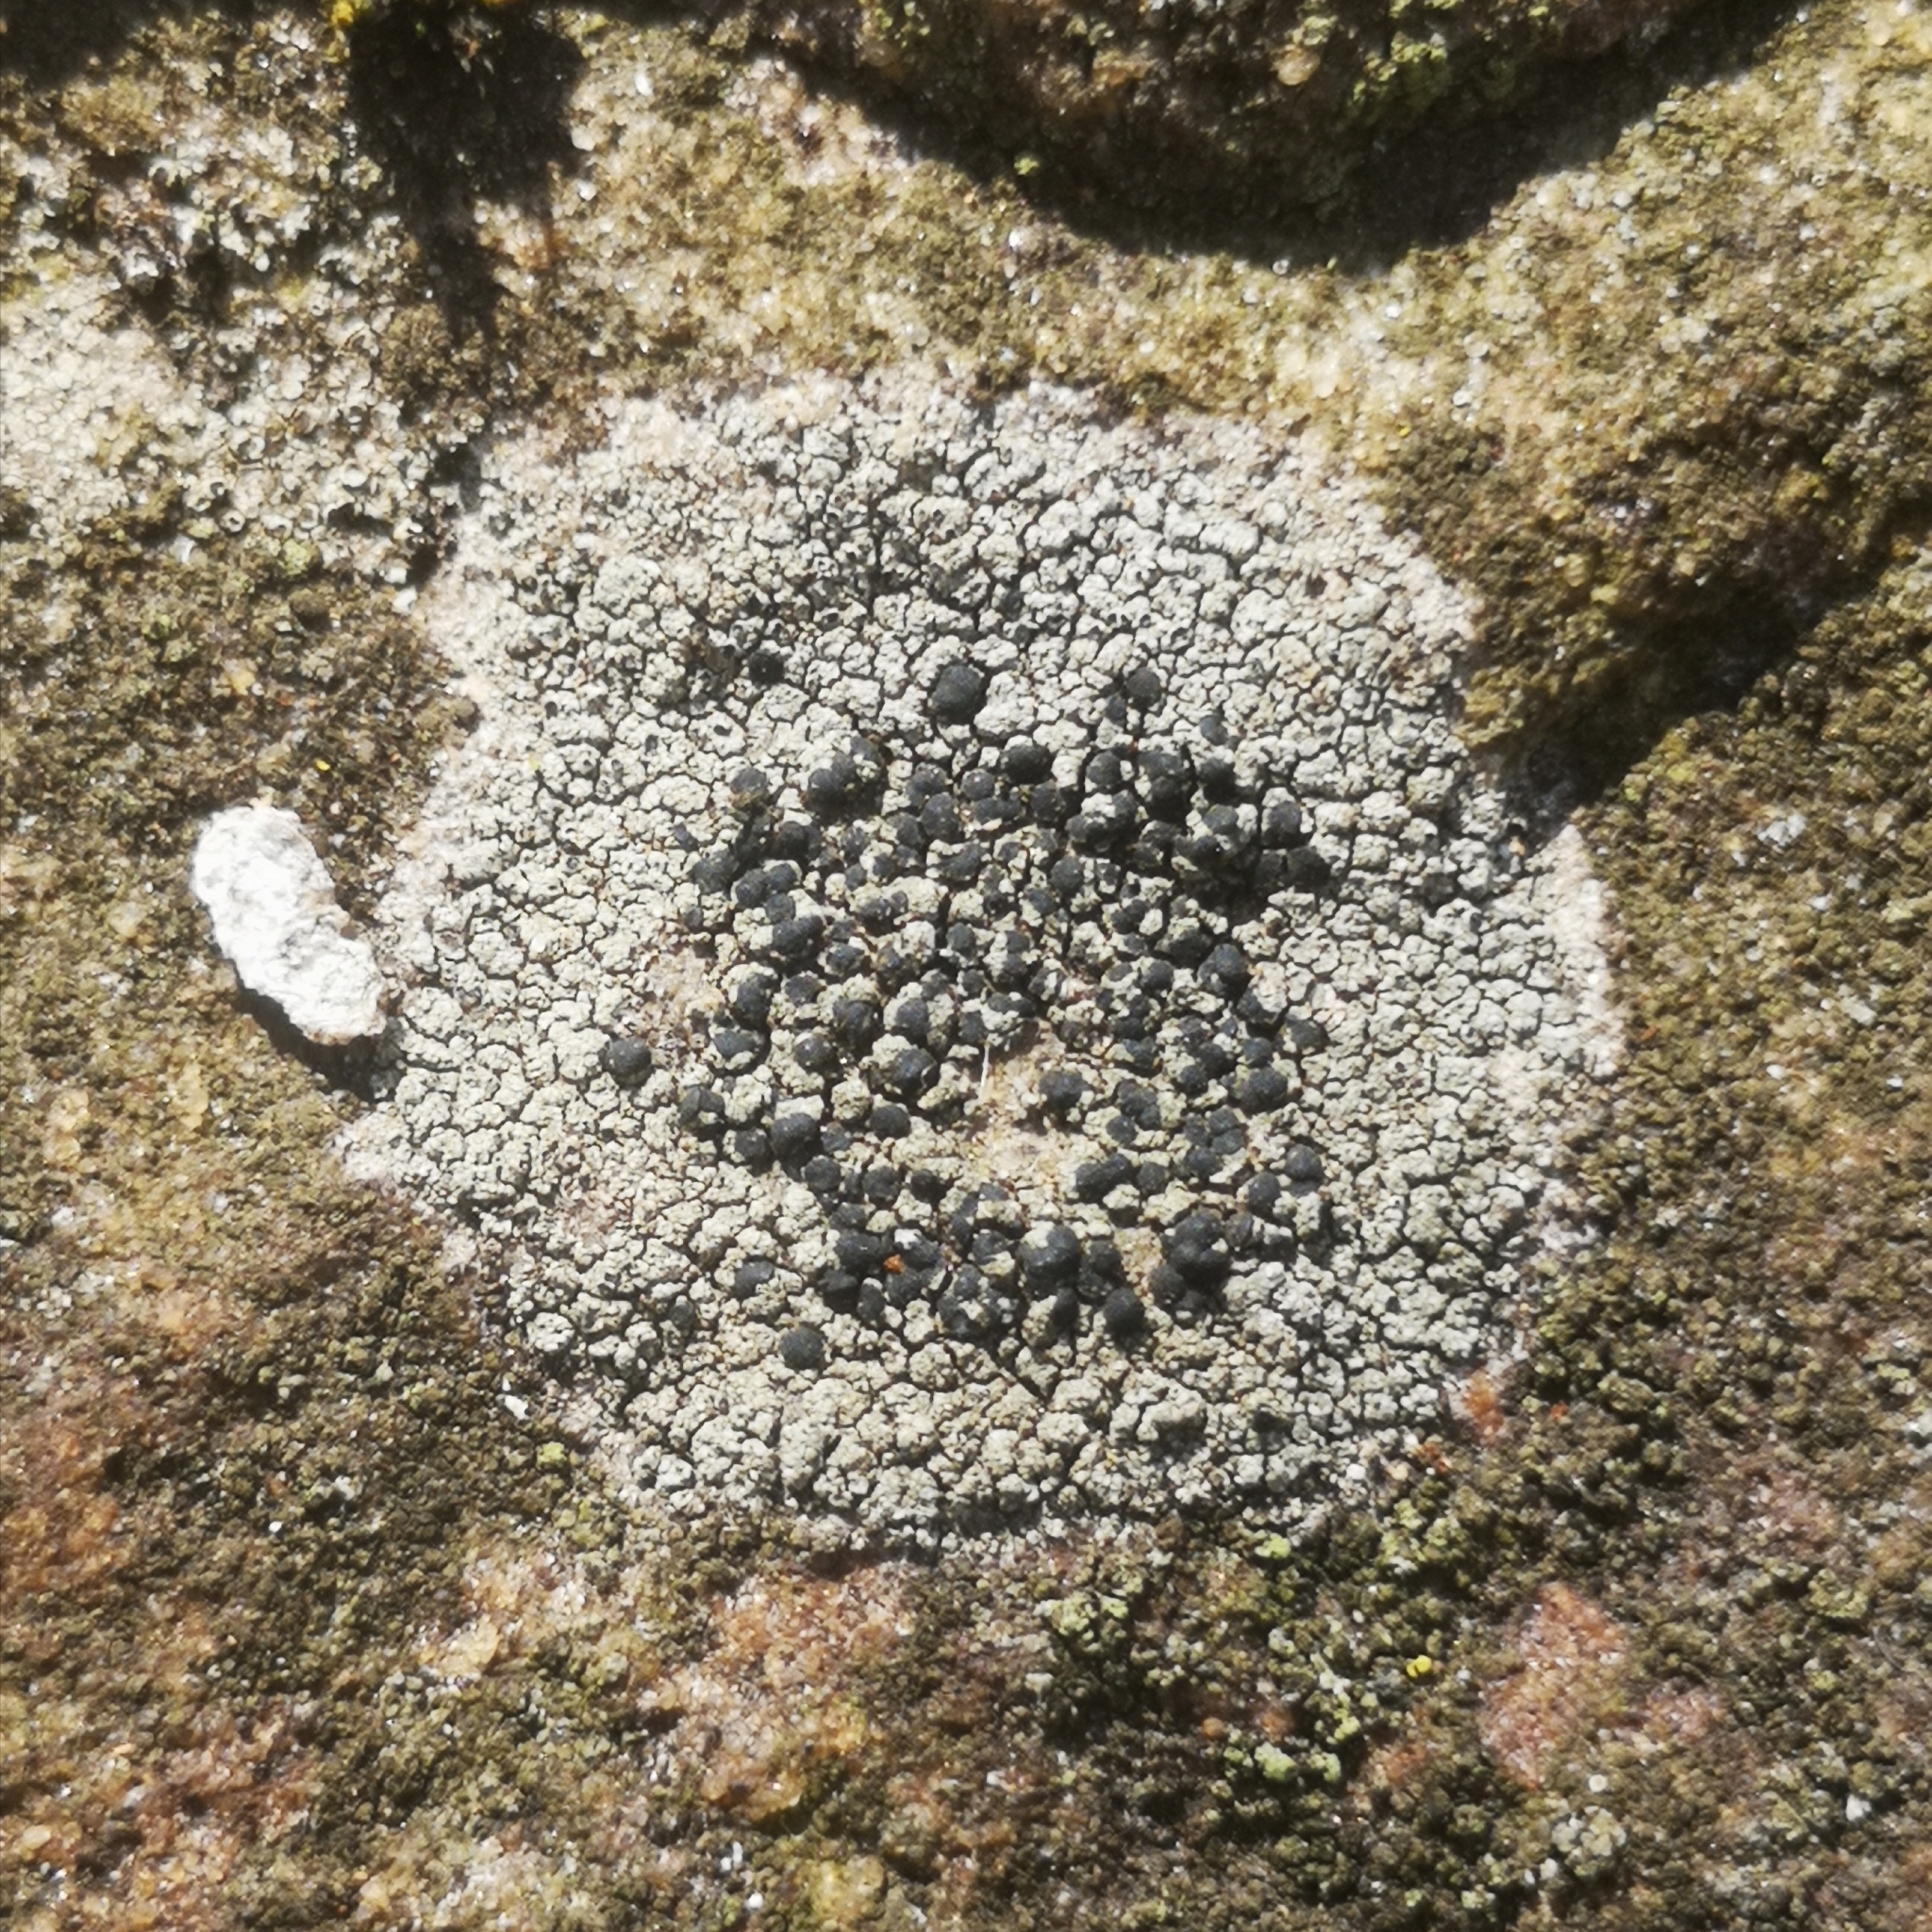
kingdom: Fungi
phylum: Ascomycota
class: Lecanoromycetes
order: Lecideales
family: Lecideaceae
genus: Porpidia
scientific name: Porpidia crustulata
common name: Concentric boulder lichen
